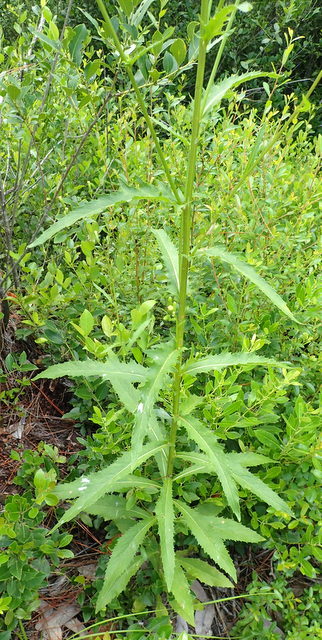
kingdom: Plantae
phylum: Tracheophyta
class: Magnoliopsida
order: Asterales
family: Asteraceae
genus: Erechtites
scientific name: Erechtites hieraciifolius
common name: American burnweed
